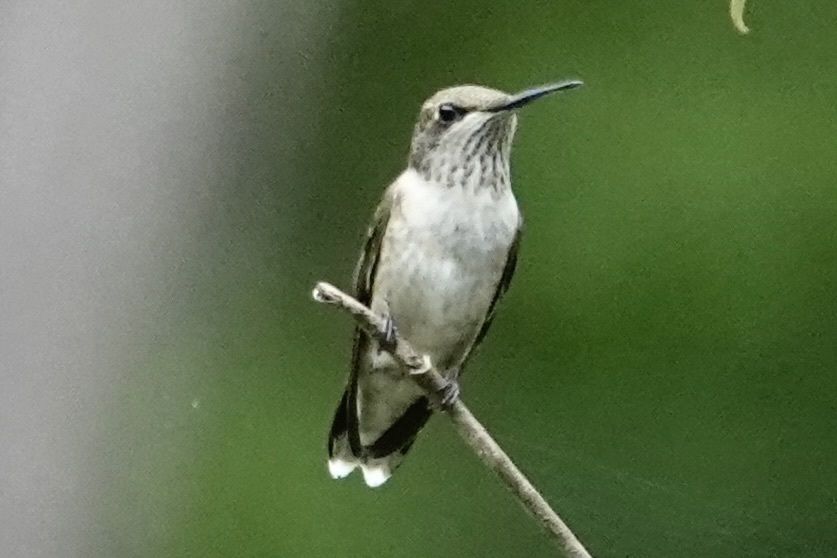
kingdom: Animalia
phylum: Chordata
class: Aves
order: Apodiformes
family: Trochilidae
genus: Archilochus
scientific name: Archilochus colubris
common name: Ruby-throated hummingbird
